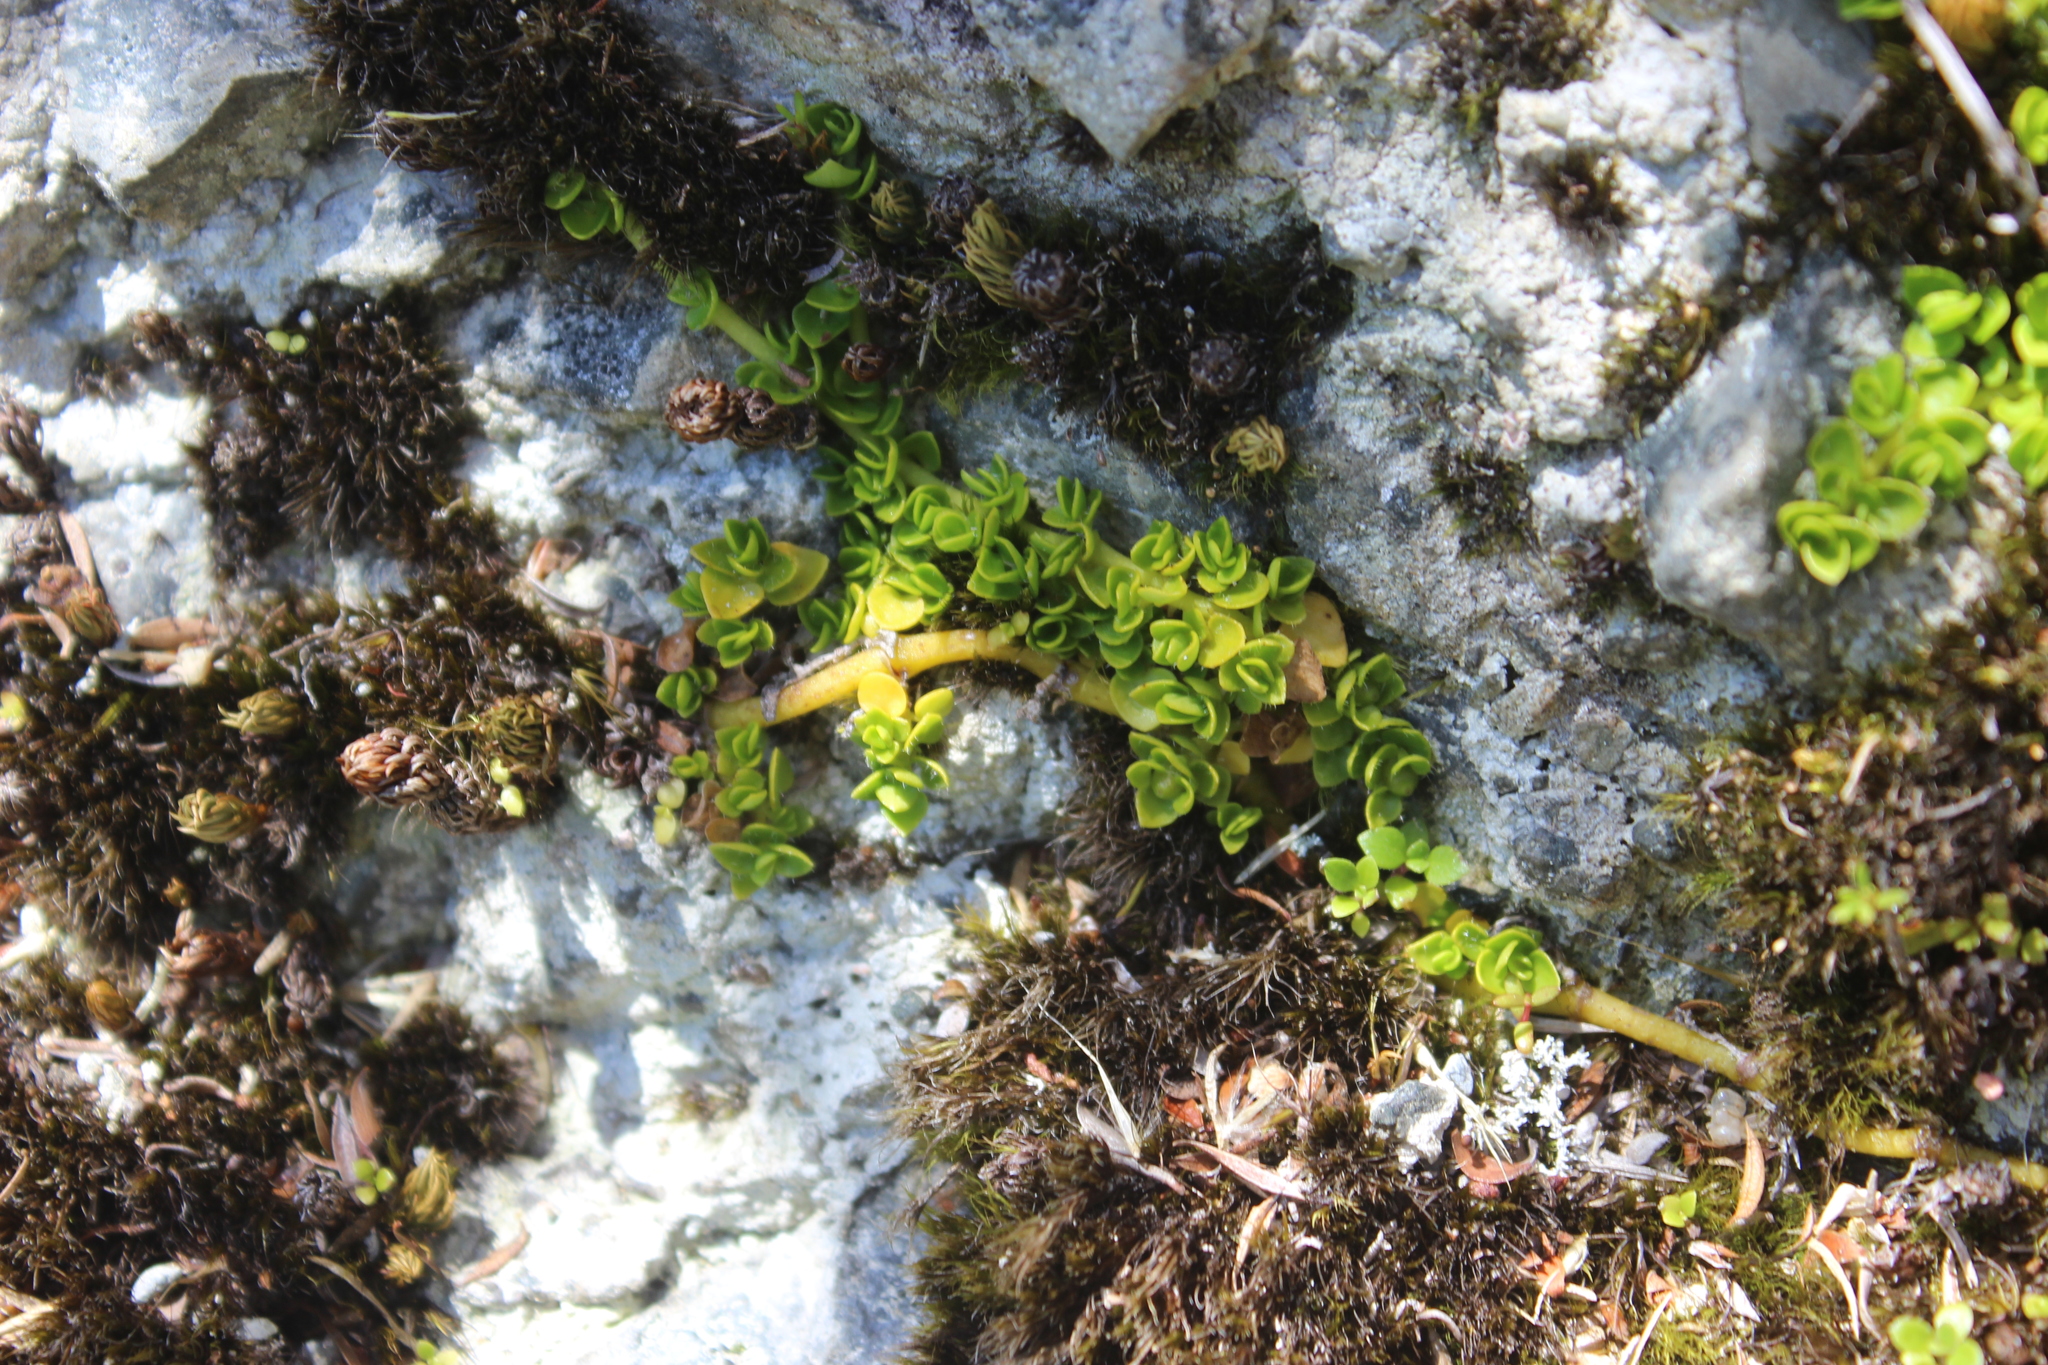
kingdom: Plantae
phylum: Tracheophyta
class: Magnoliopsida
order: Gentianales
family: Rubiaceae
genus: Nertera
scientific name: Nertera ciliata
